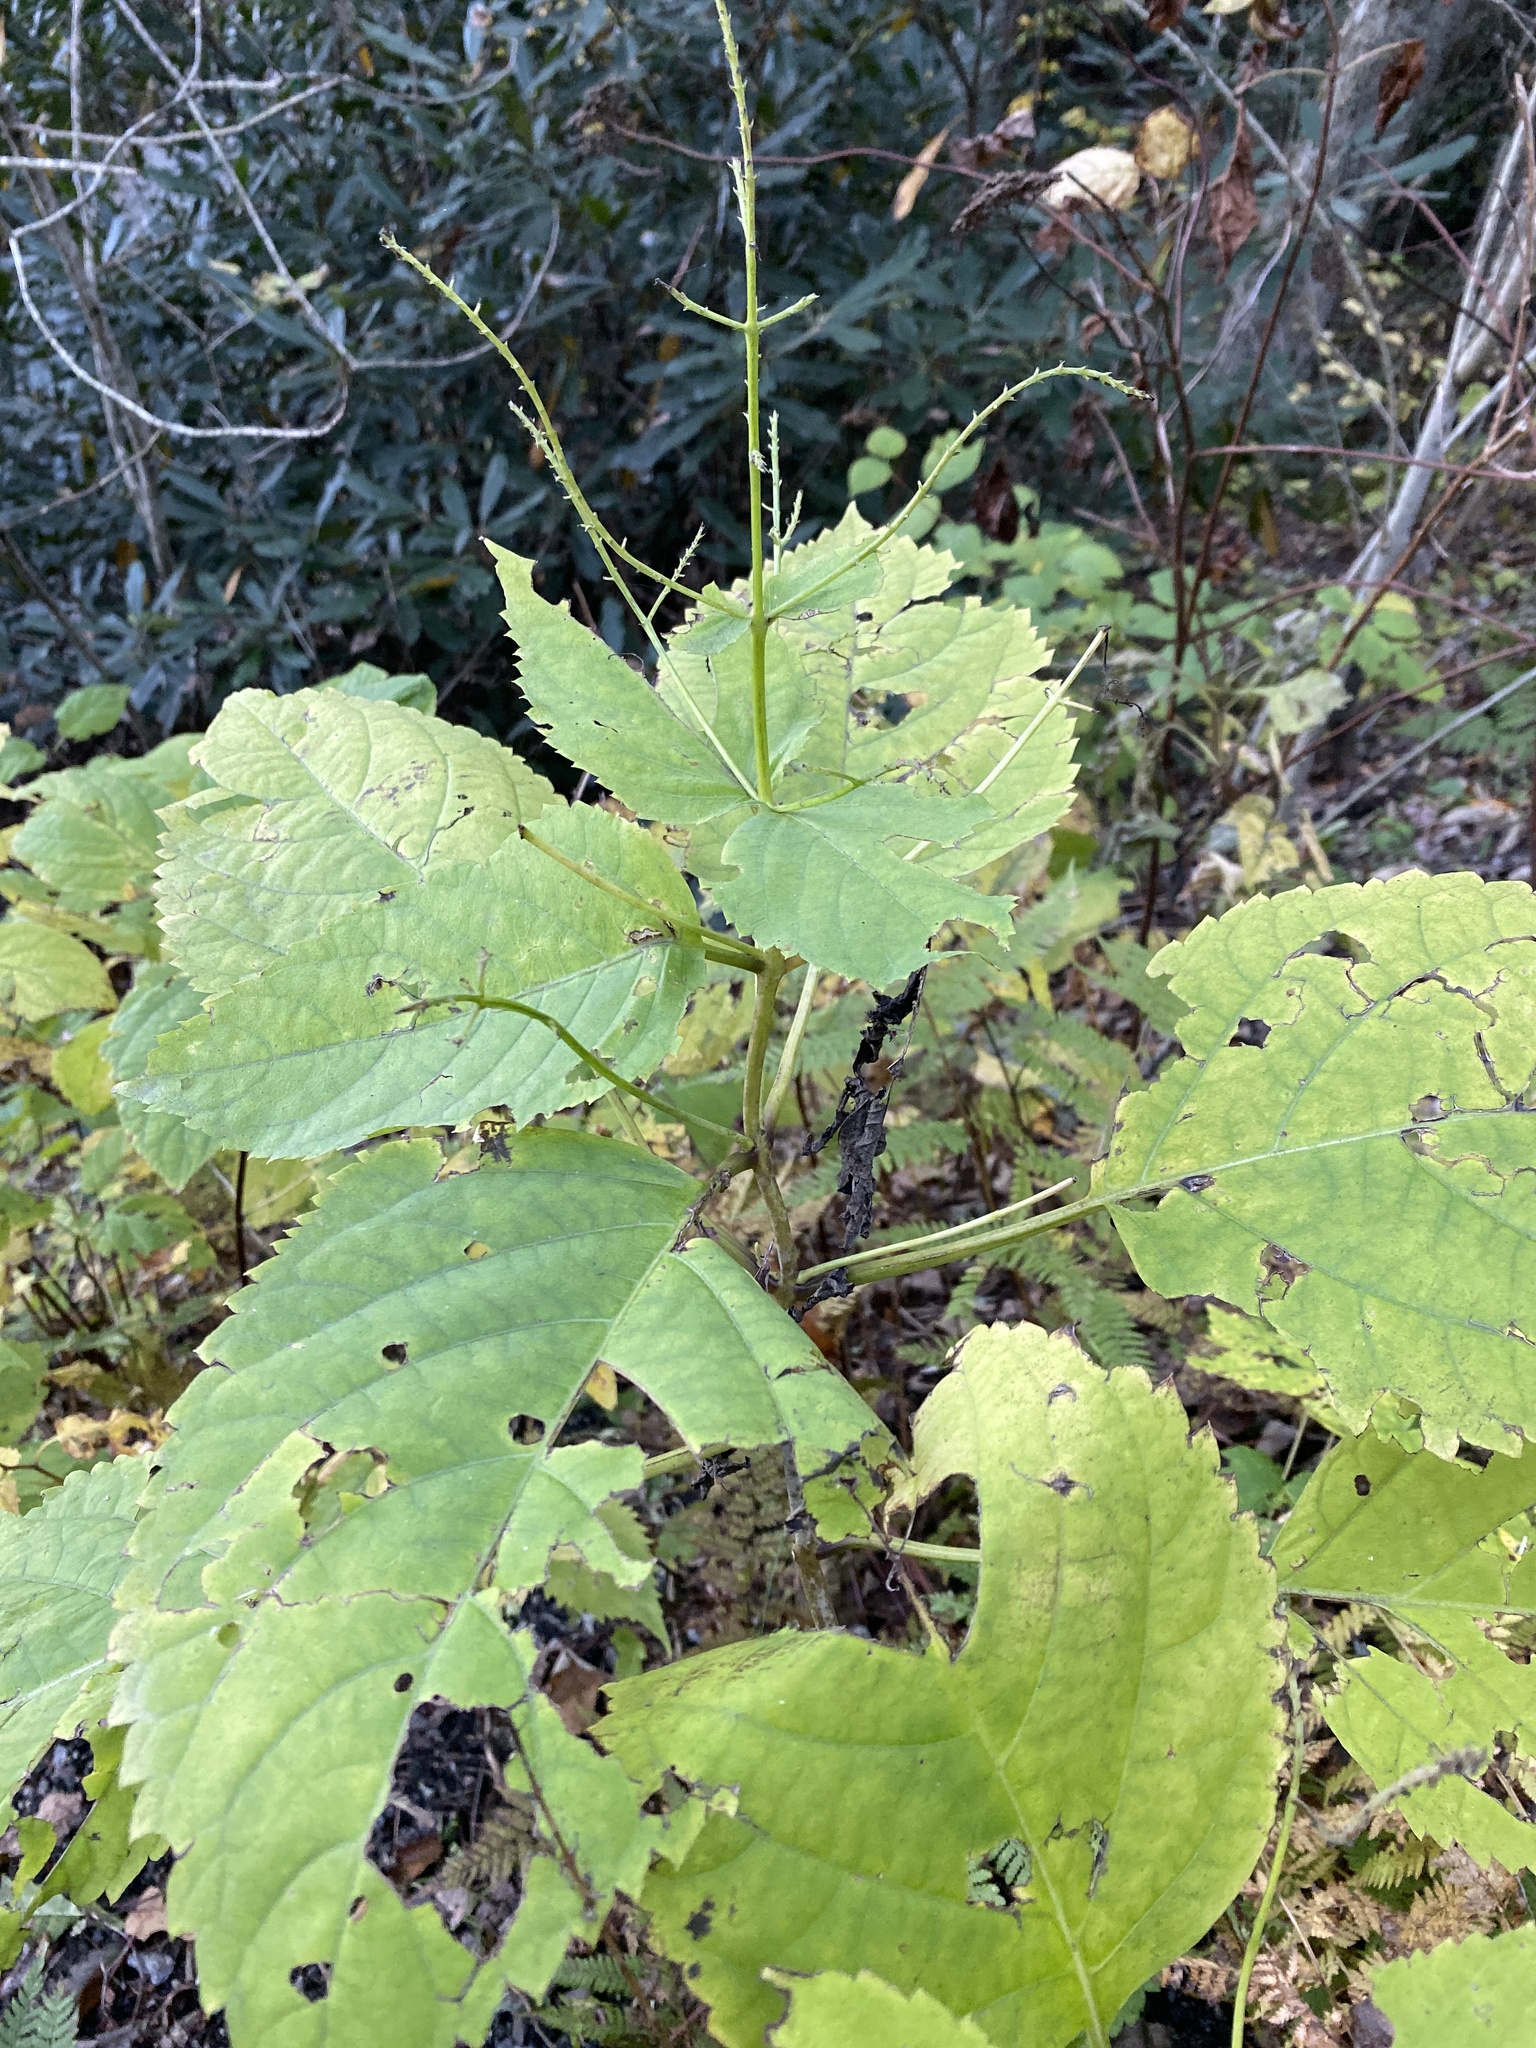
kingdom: Plantae
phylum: Tracheophyta
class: Magnoliopsida
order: Lamiales
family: Lamiaceae
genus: Collinsonia
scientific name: Collinsonia canadensis
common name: Northern horsebalm
